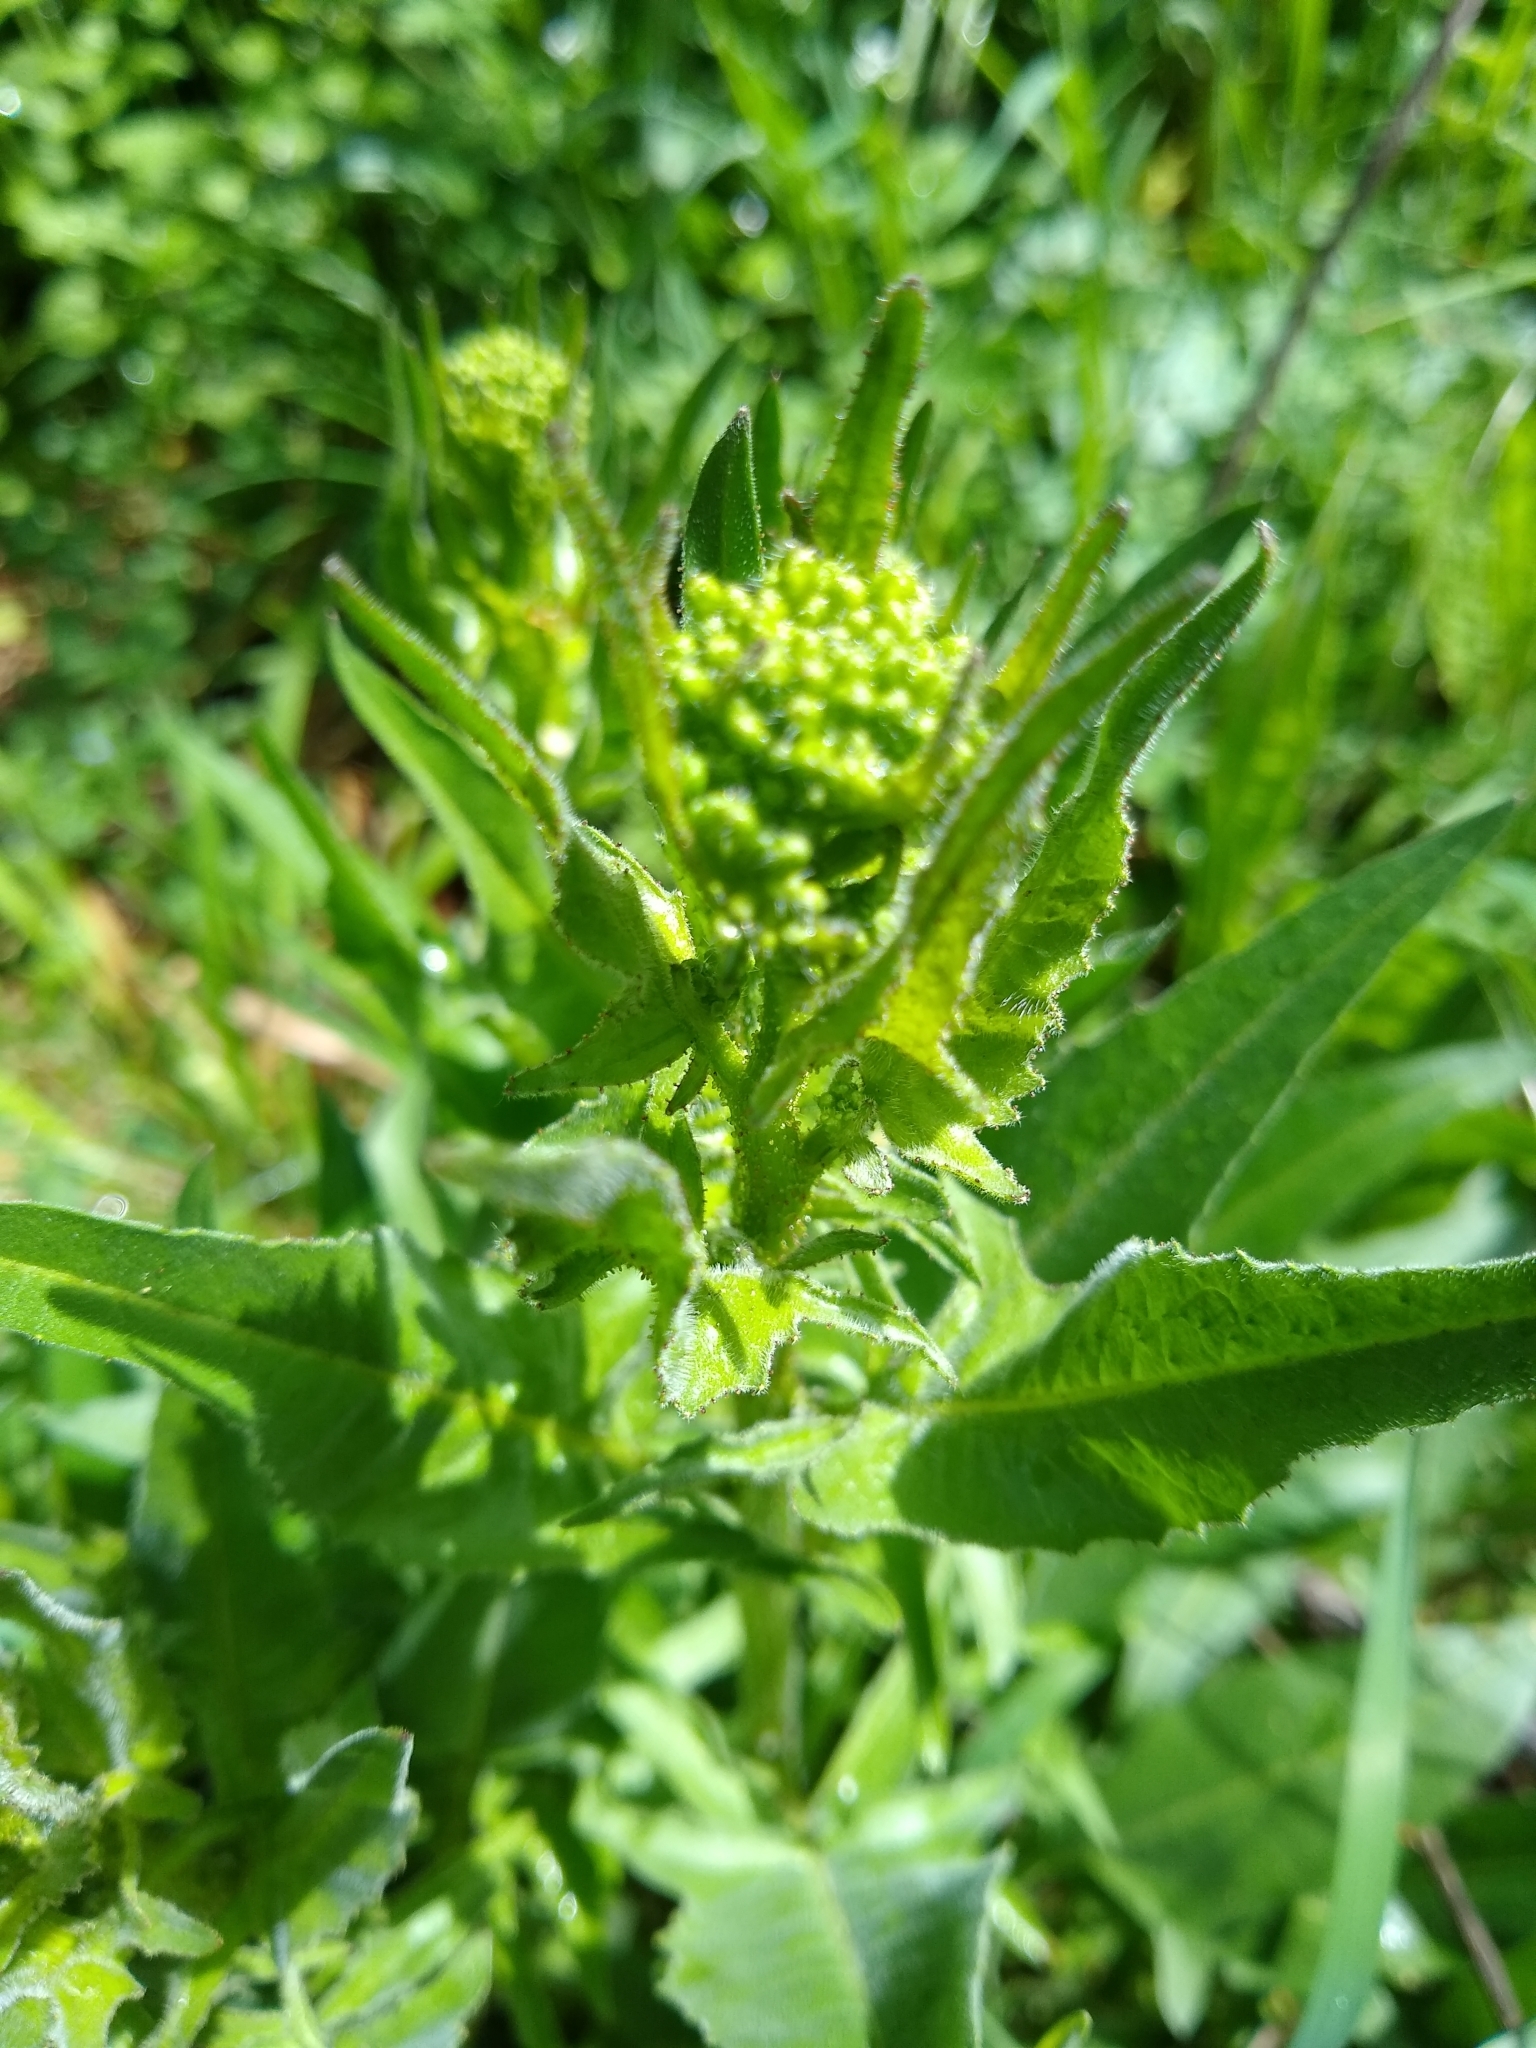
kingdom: Plantae
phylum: Tracheophyta
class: Magnoliopsida
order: Brassicales
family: Brassicaceae
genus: Bunias
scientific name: Bunias orientalis
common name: Warty-cabbage
